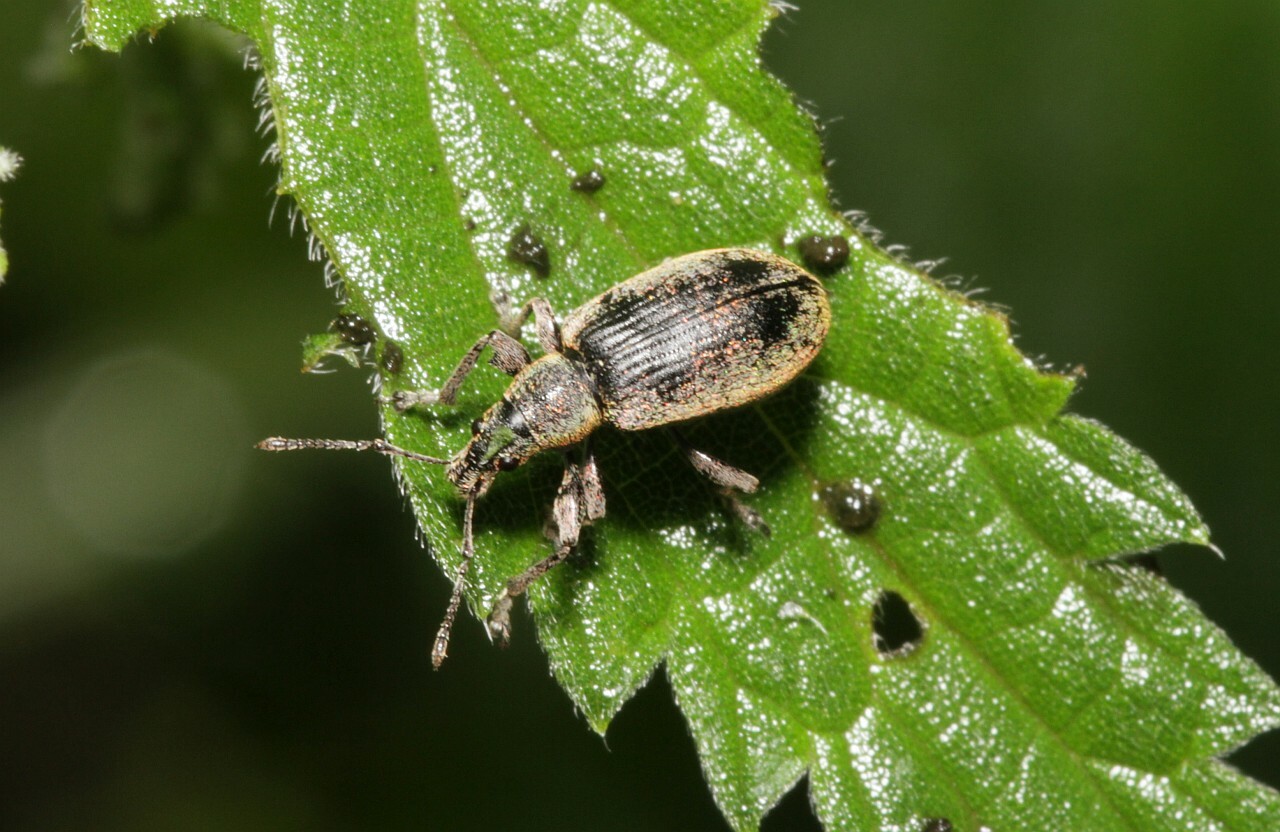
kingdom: Animalia
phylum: Arthropoda
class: Insecta
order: Coleoptera
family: Curculionidae
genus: Phyllobius
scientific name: Phyllobius pomaceus
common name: Green nettle weevil
